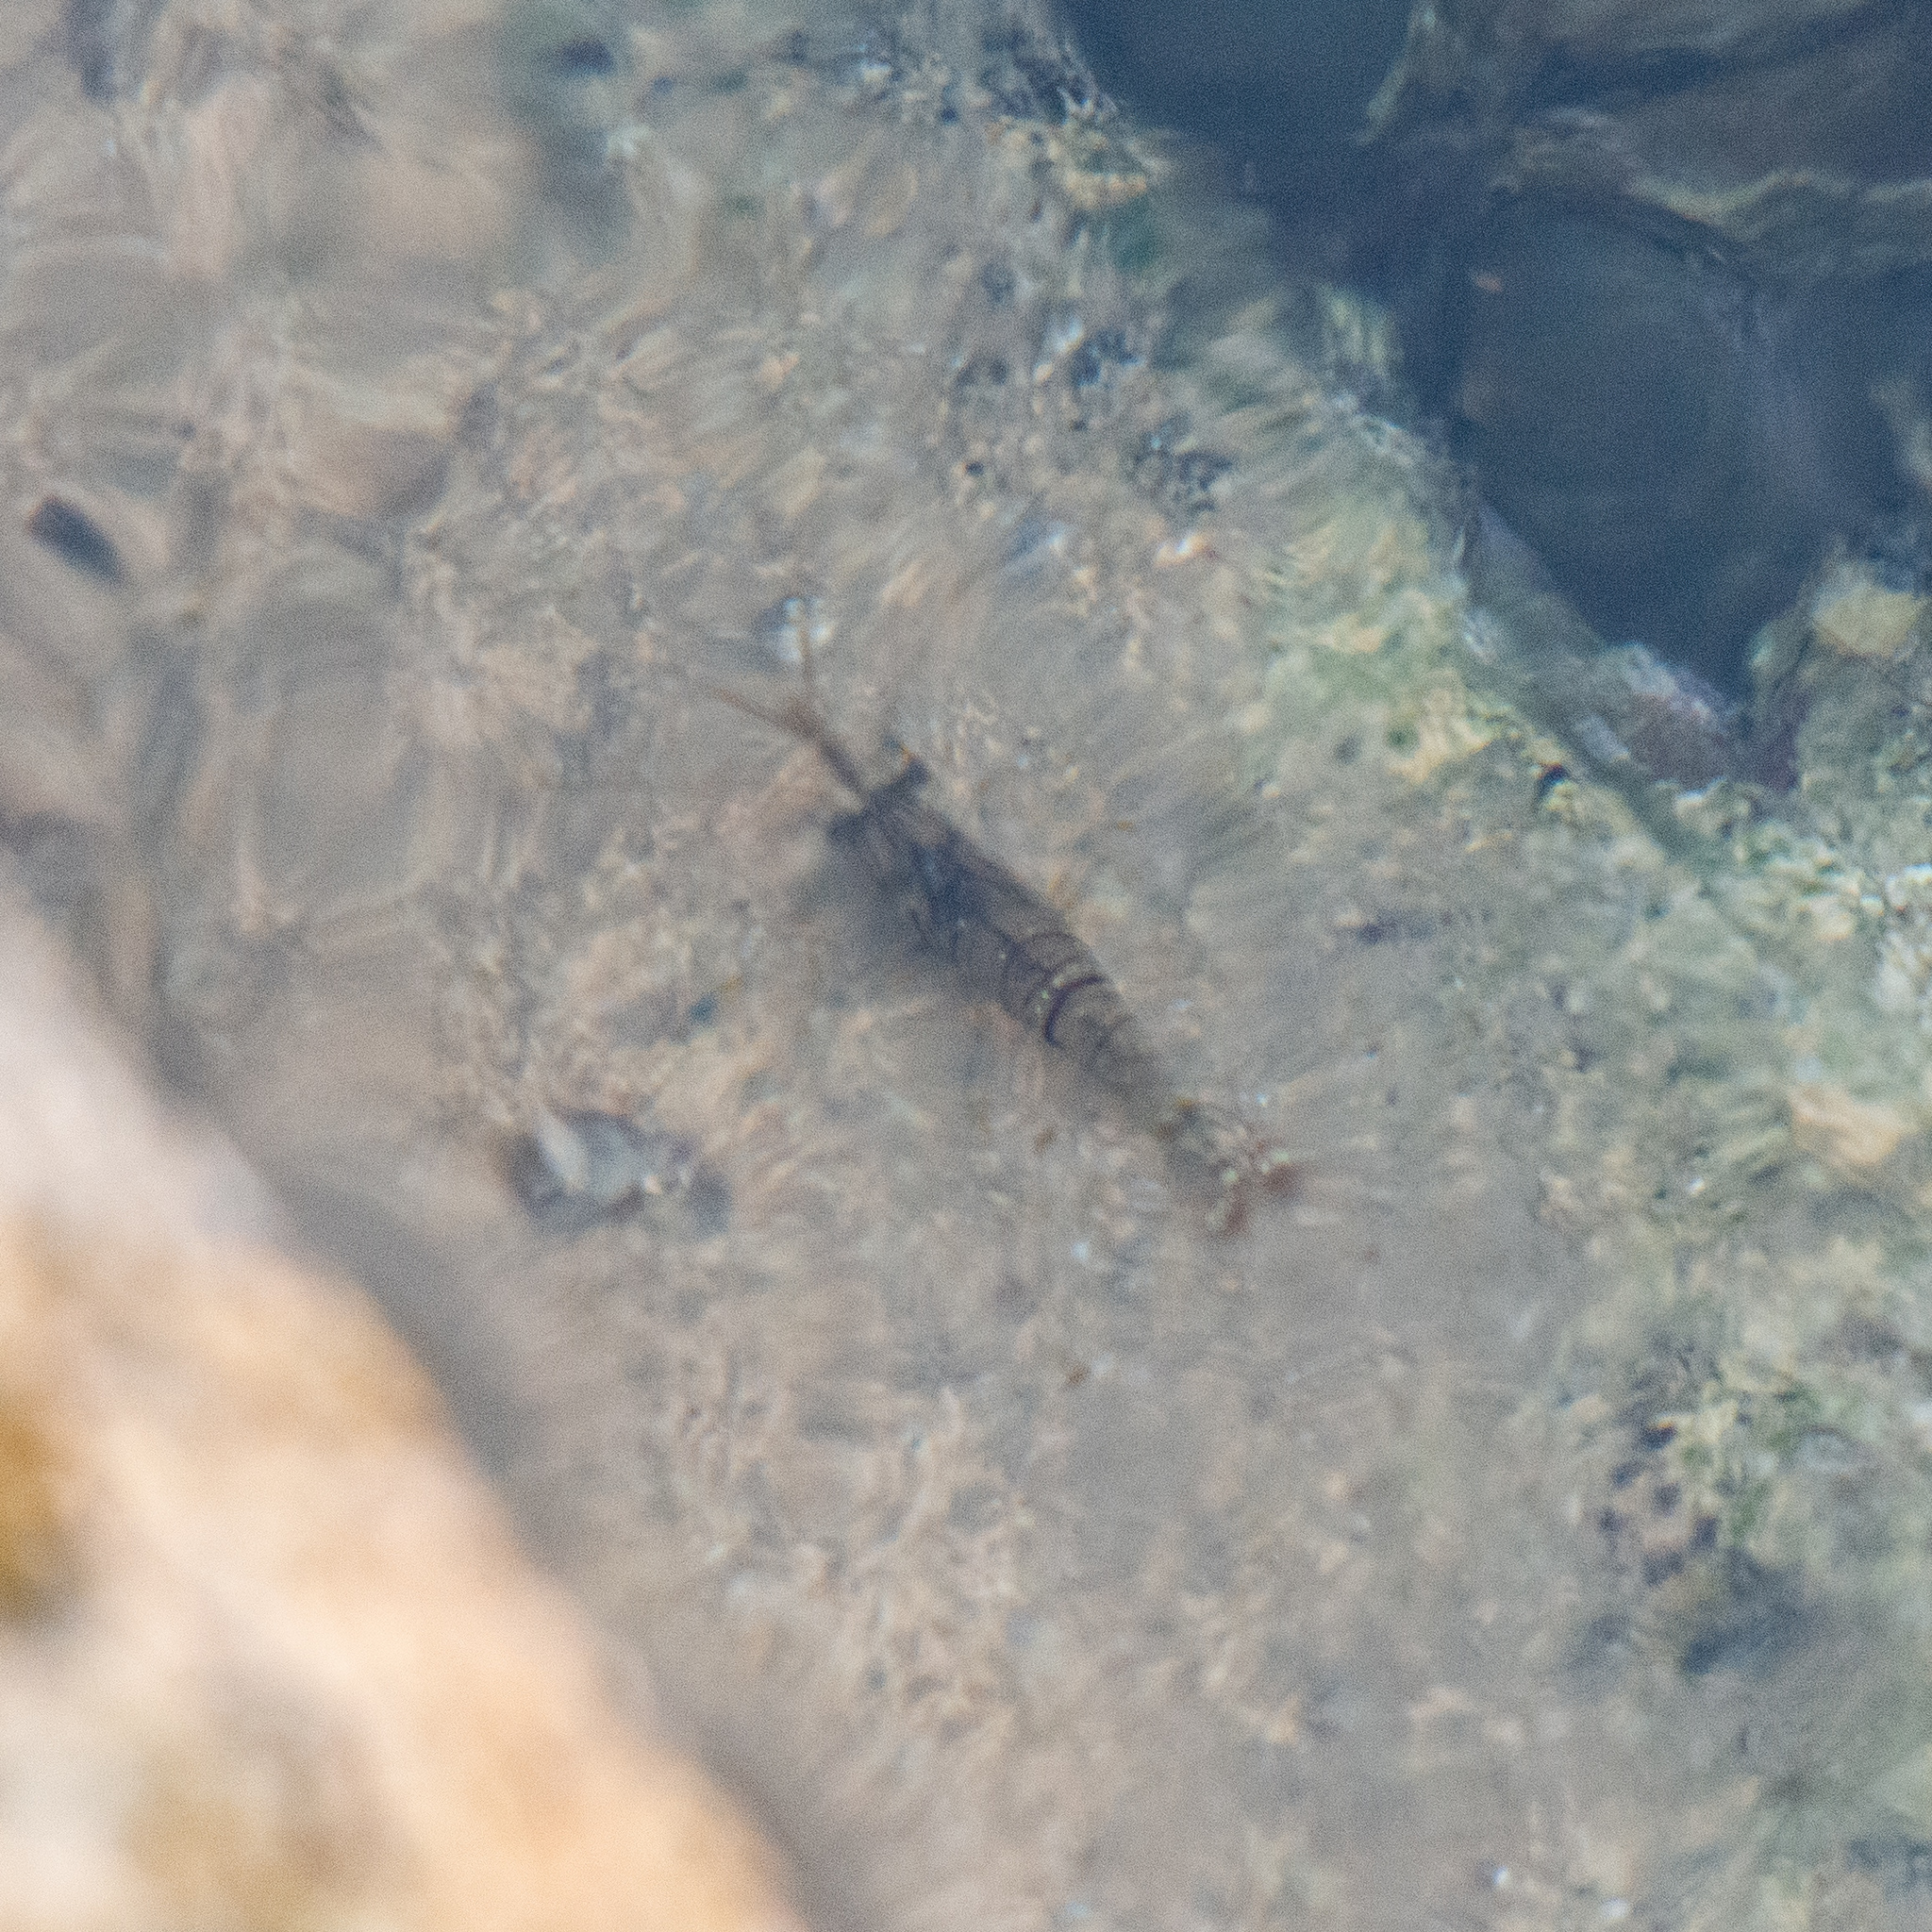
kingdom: Animalia
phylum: Arthropoda
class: Malacostraca
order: Decapoda
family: Palaemonidae
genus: Palaemon
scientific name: Palaemon elegans
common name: Grass prawm
